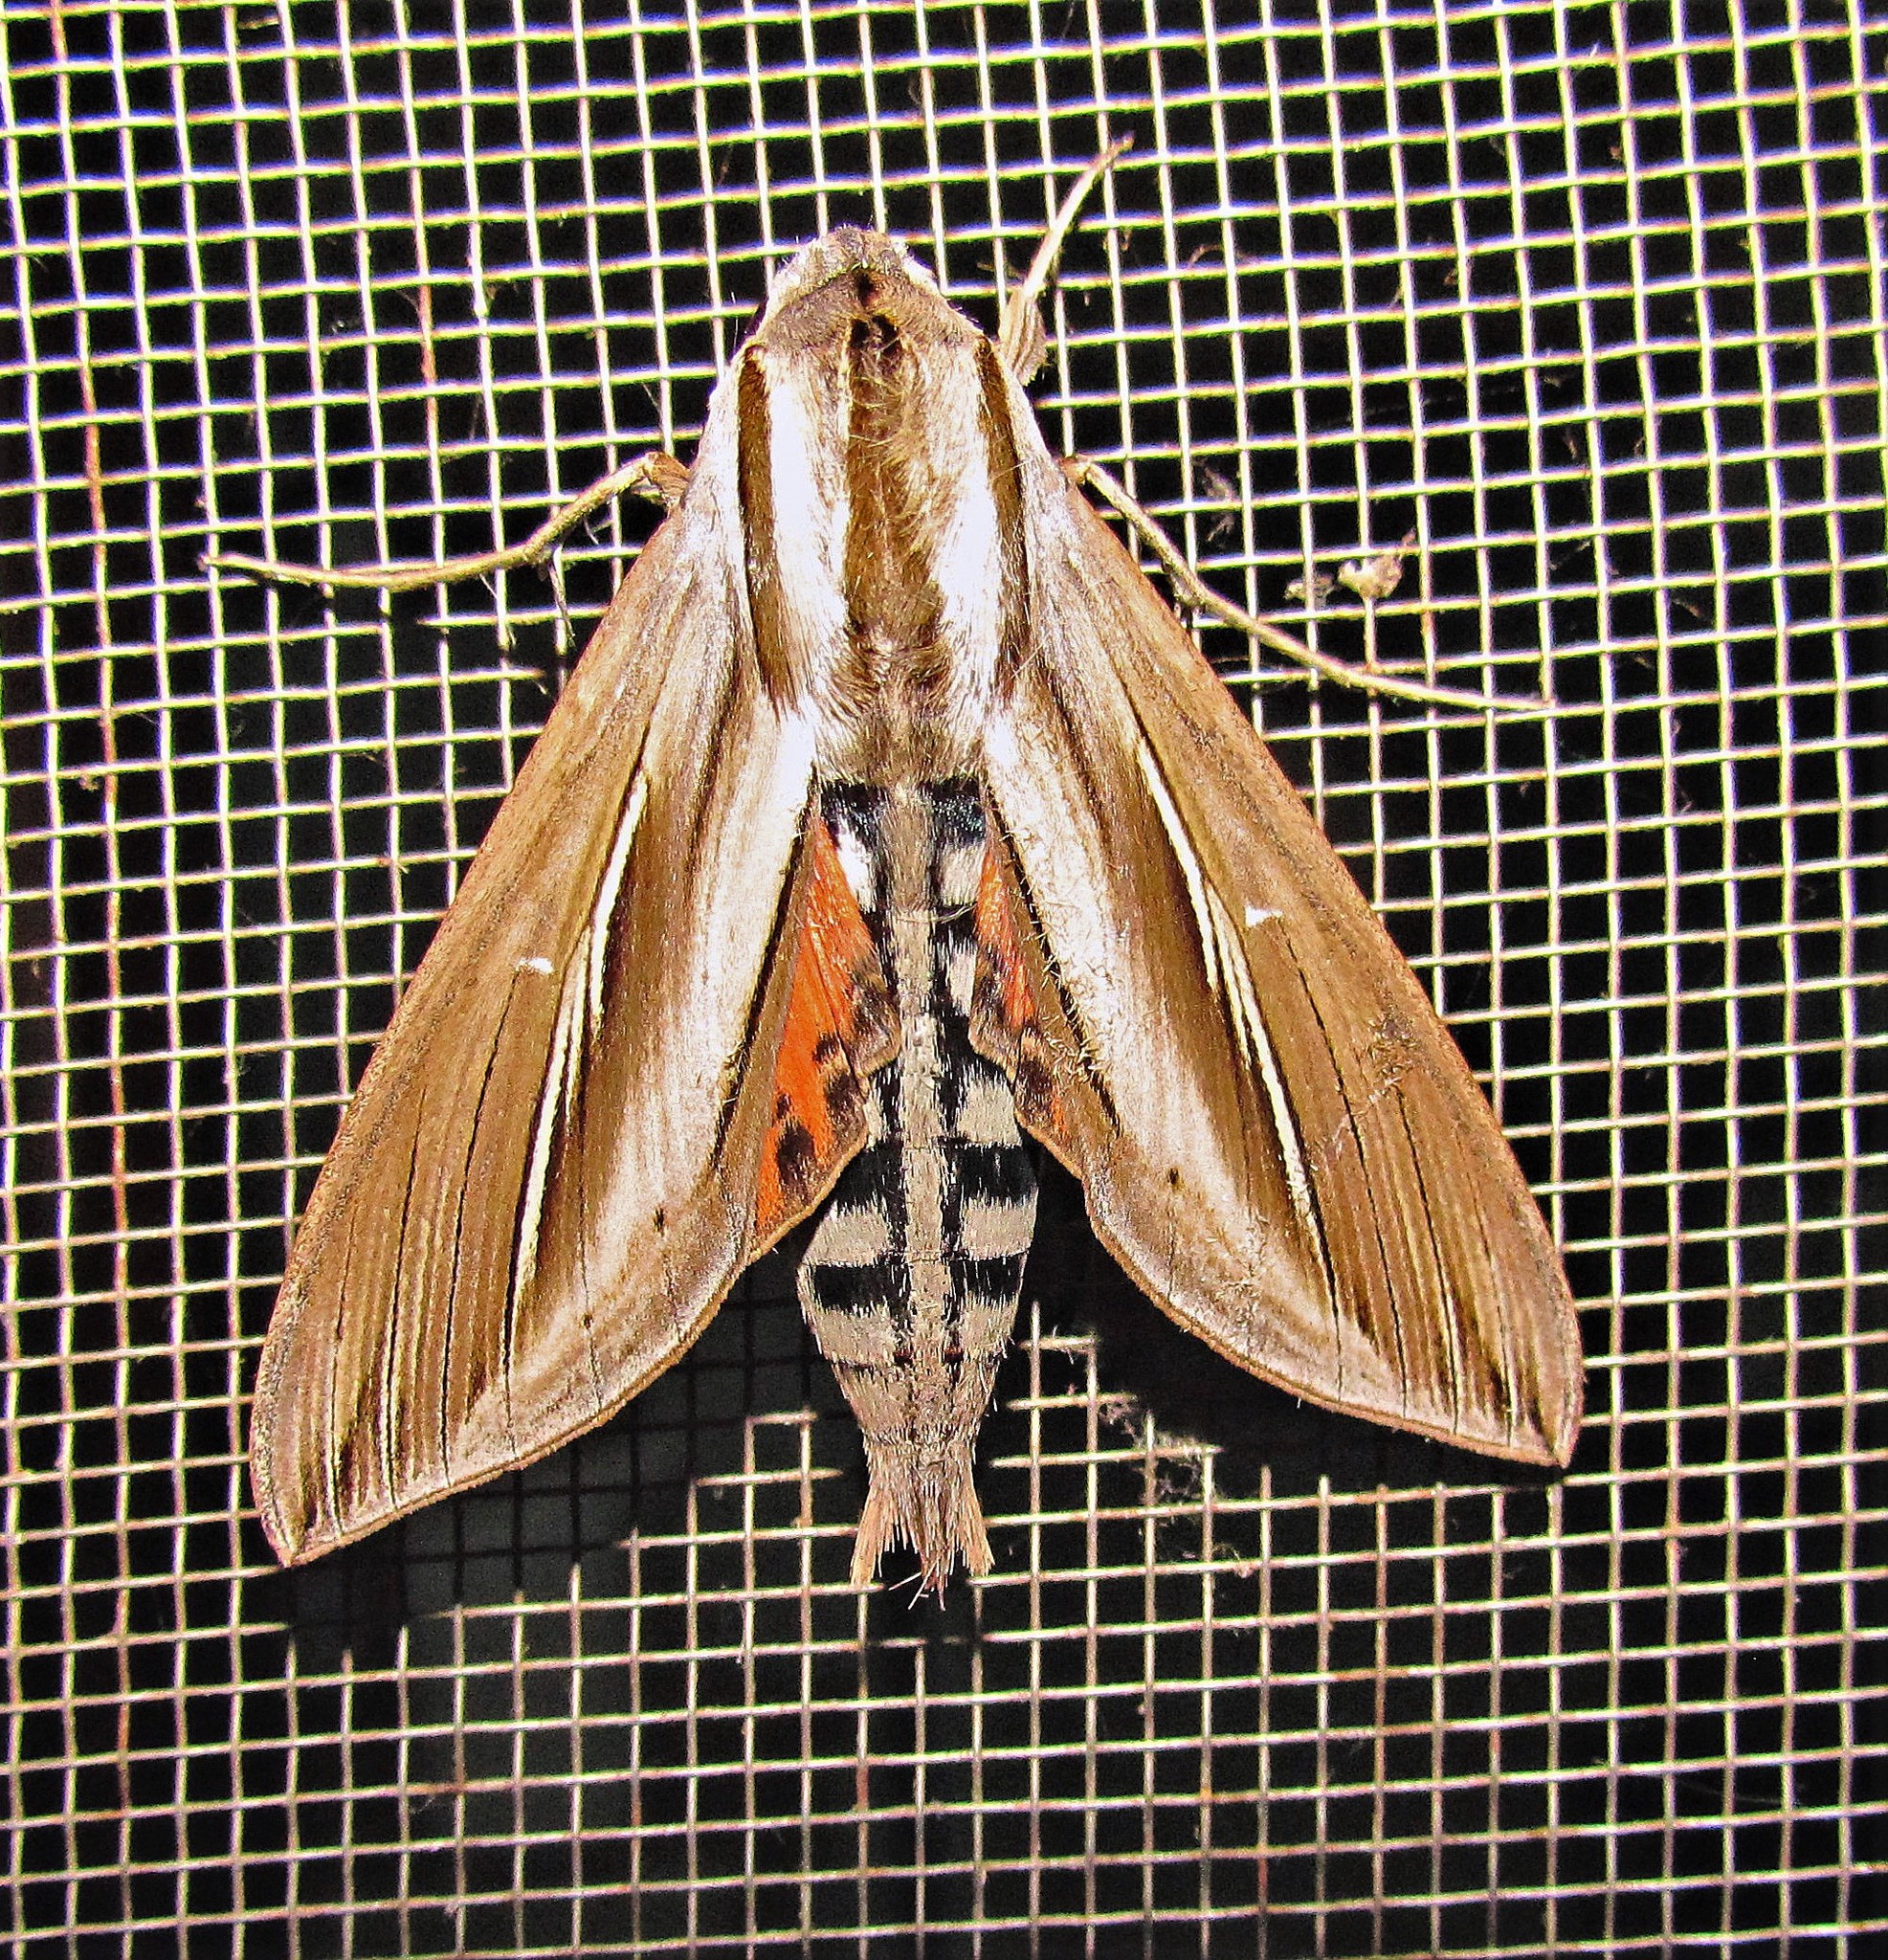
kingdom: Animalia
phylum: Arthropoda
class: Insecta
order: Lepidoptera
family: Sphingidae
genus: Phryxus
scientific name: Phryxus caicus
